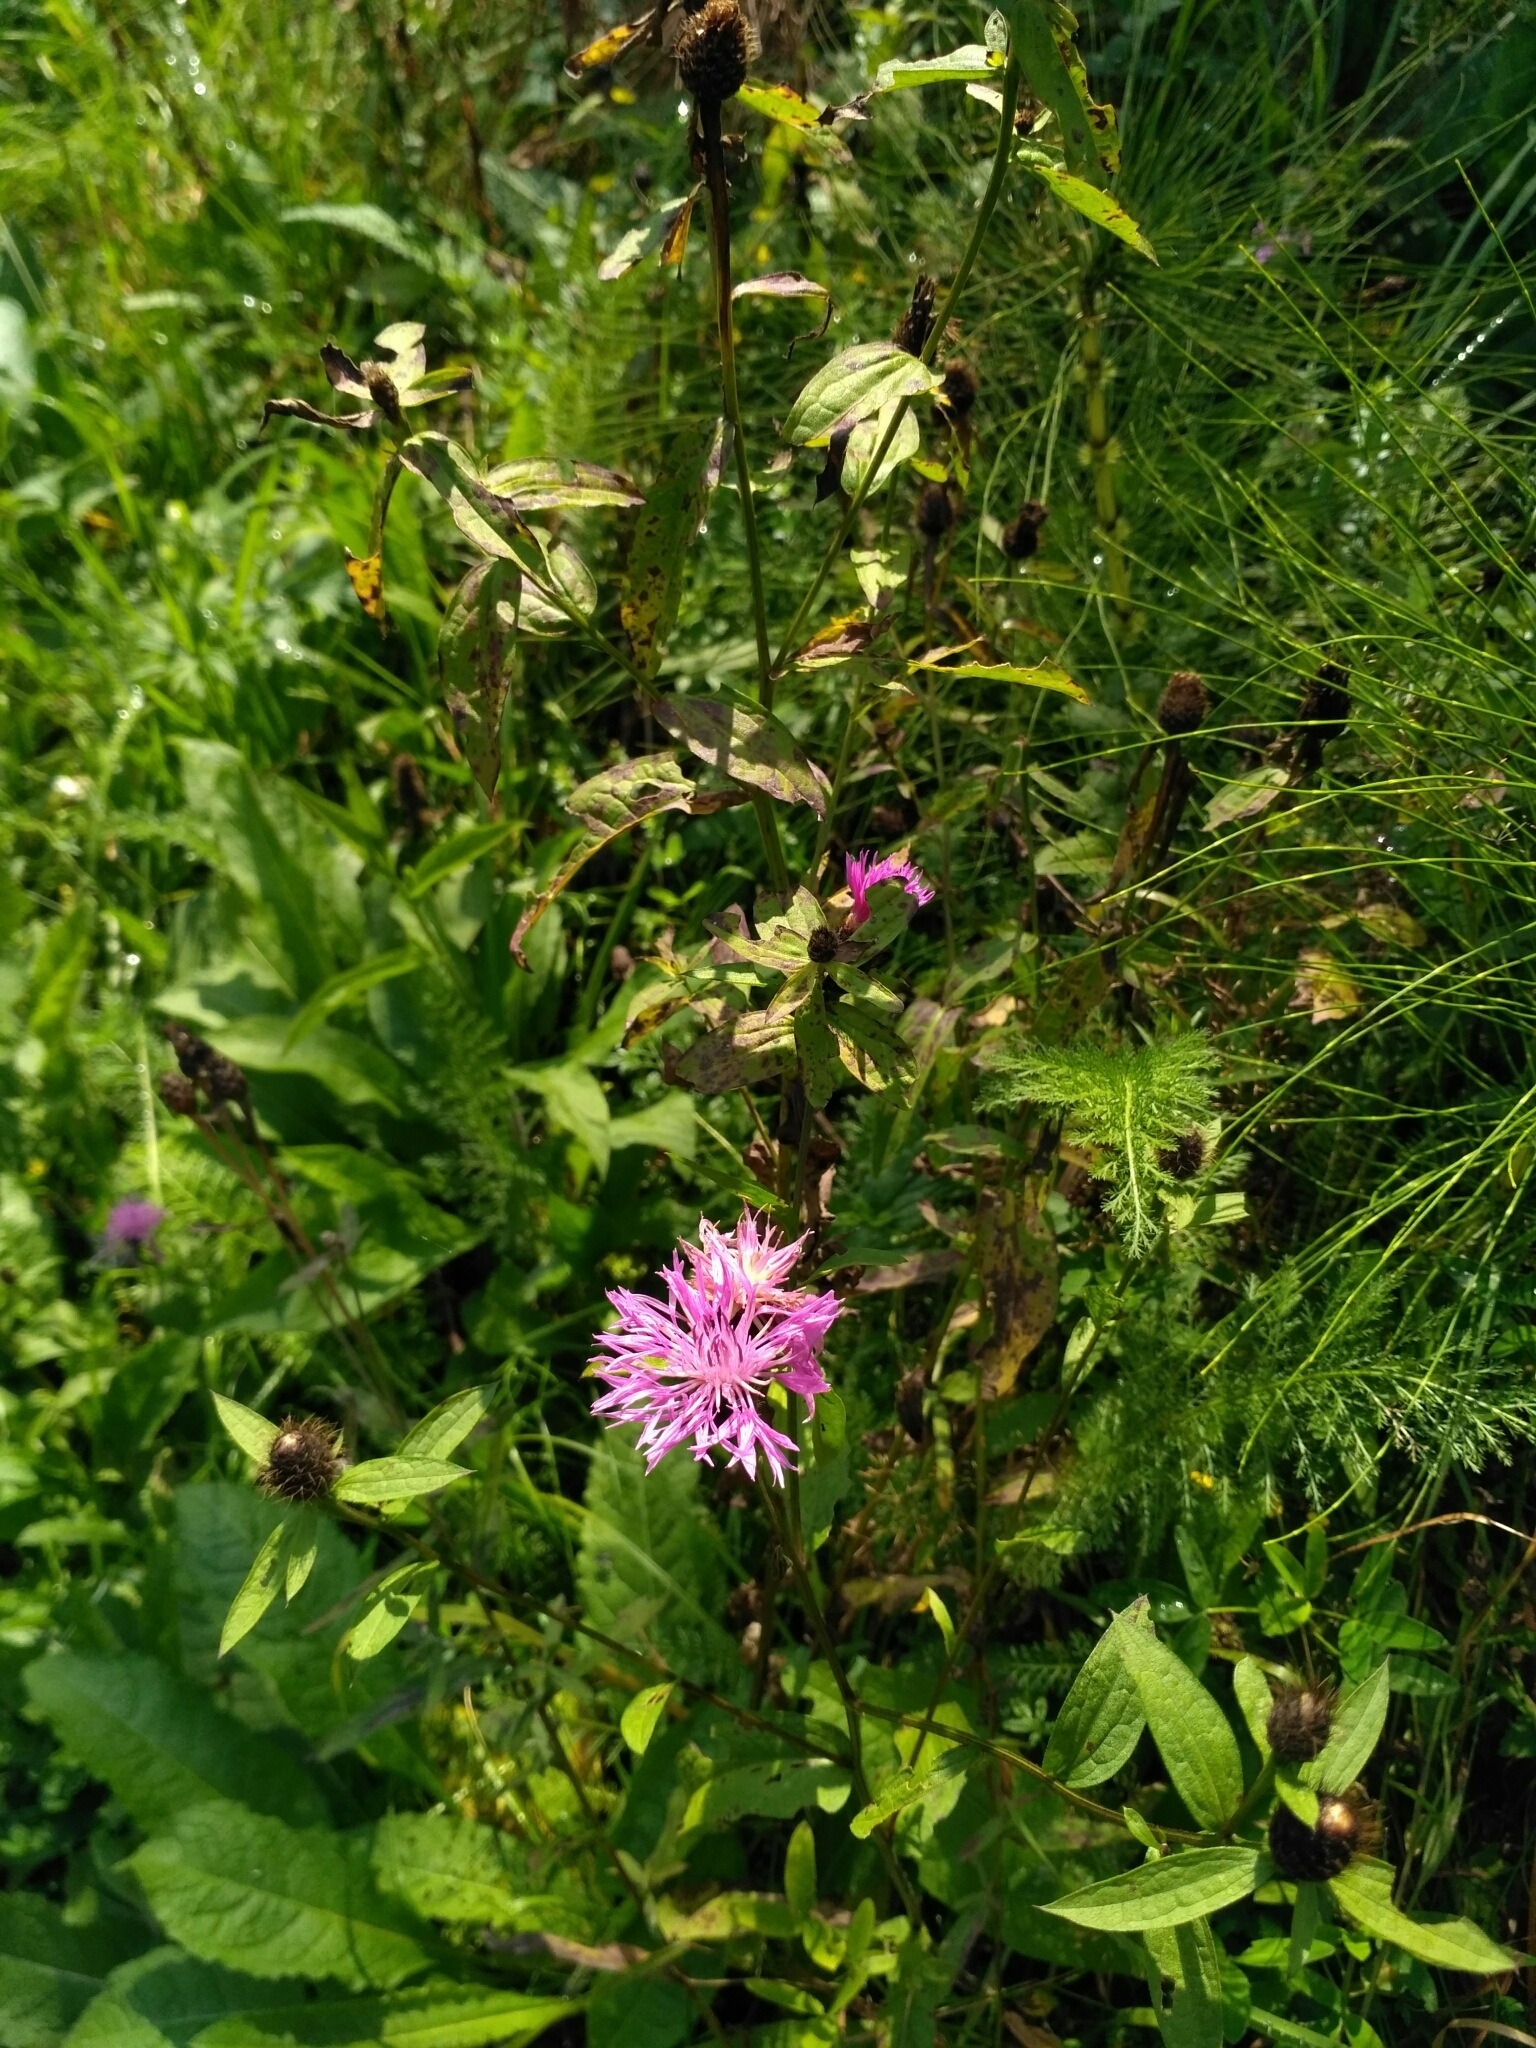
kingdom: Plantae
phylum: Tracheophyta
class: Magnoliopsida
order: Asterales
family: Asteraceae
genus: Centaurea
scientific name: Centaurea phrygia
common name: Wig knapweed
